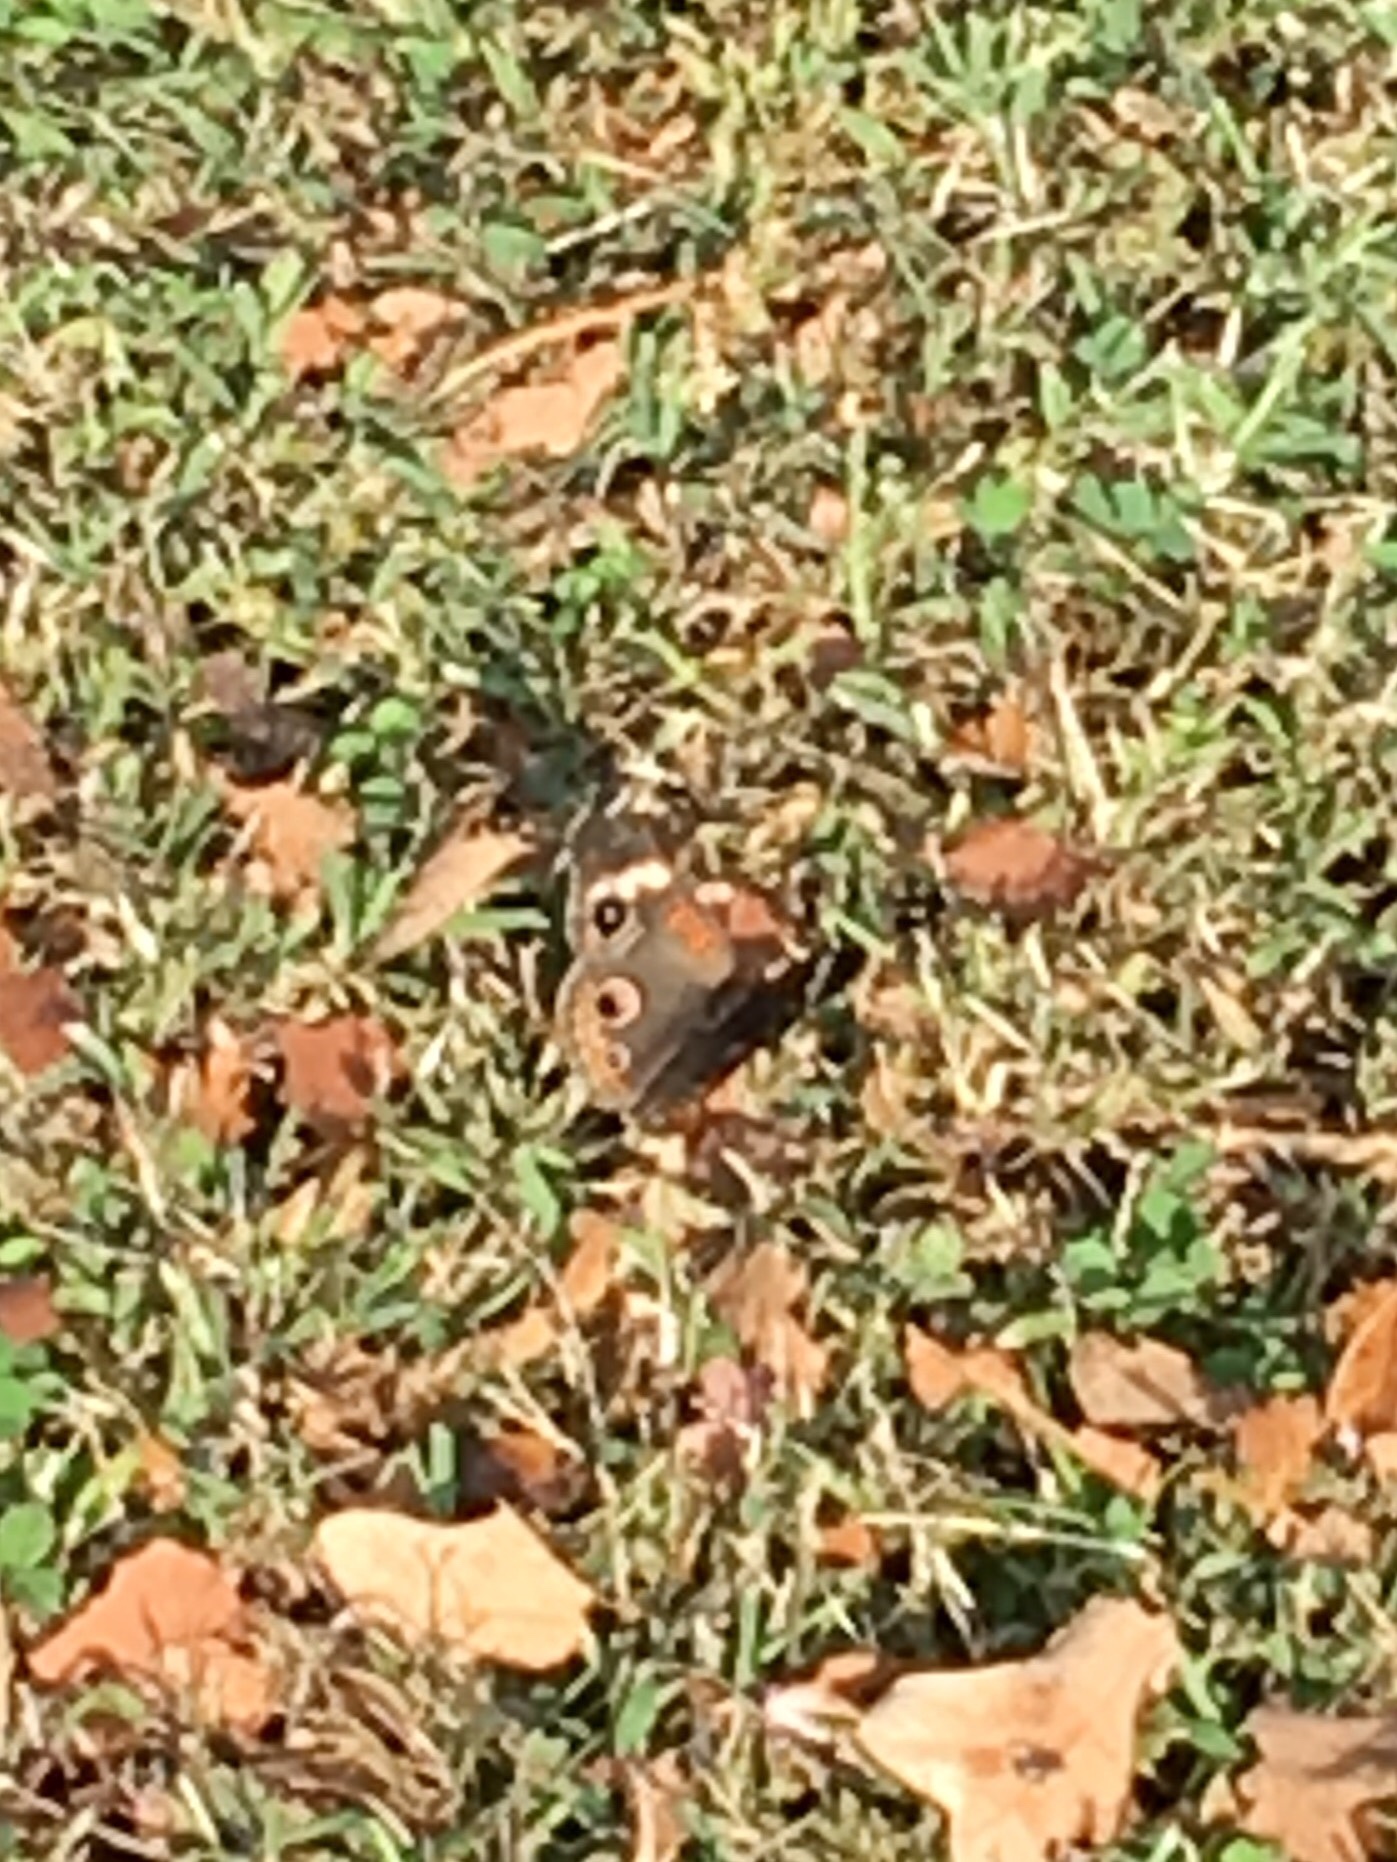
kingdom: Animalia
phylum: Arthropoda
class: Insecta
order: Lepidoptera
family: Nymphalidae
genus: Junonia
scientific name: Junonia coenia
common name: Common buckeye
